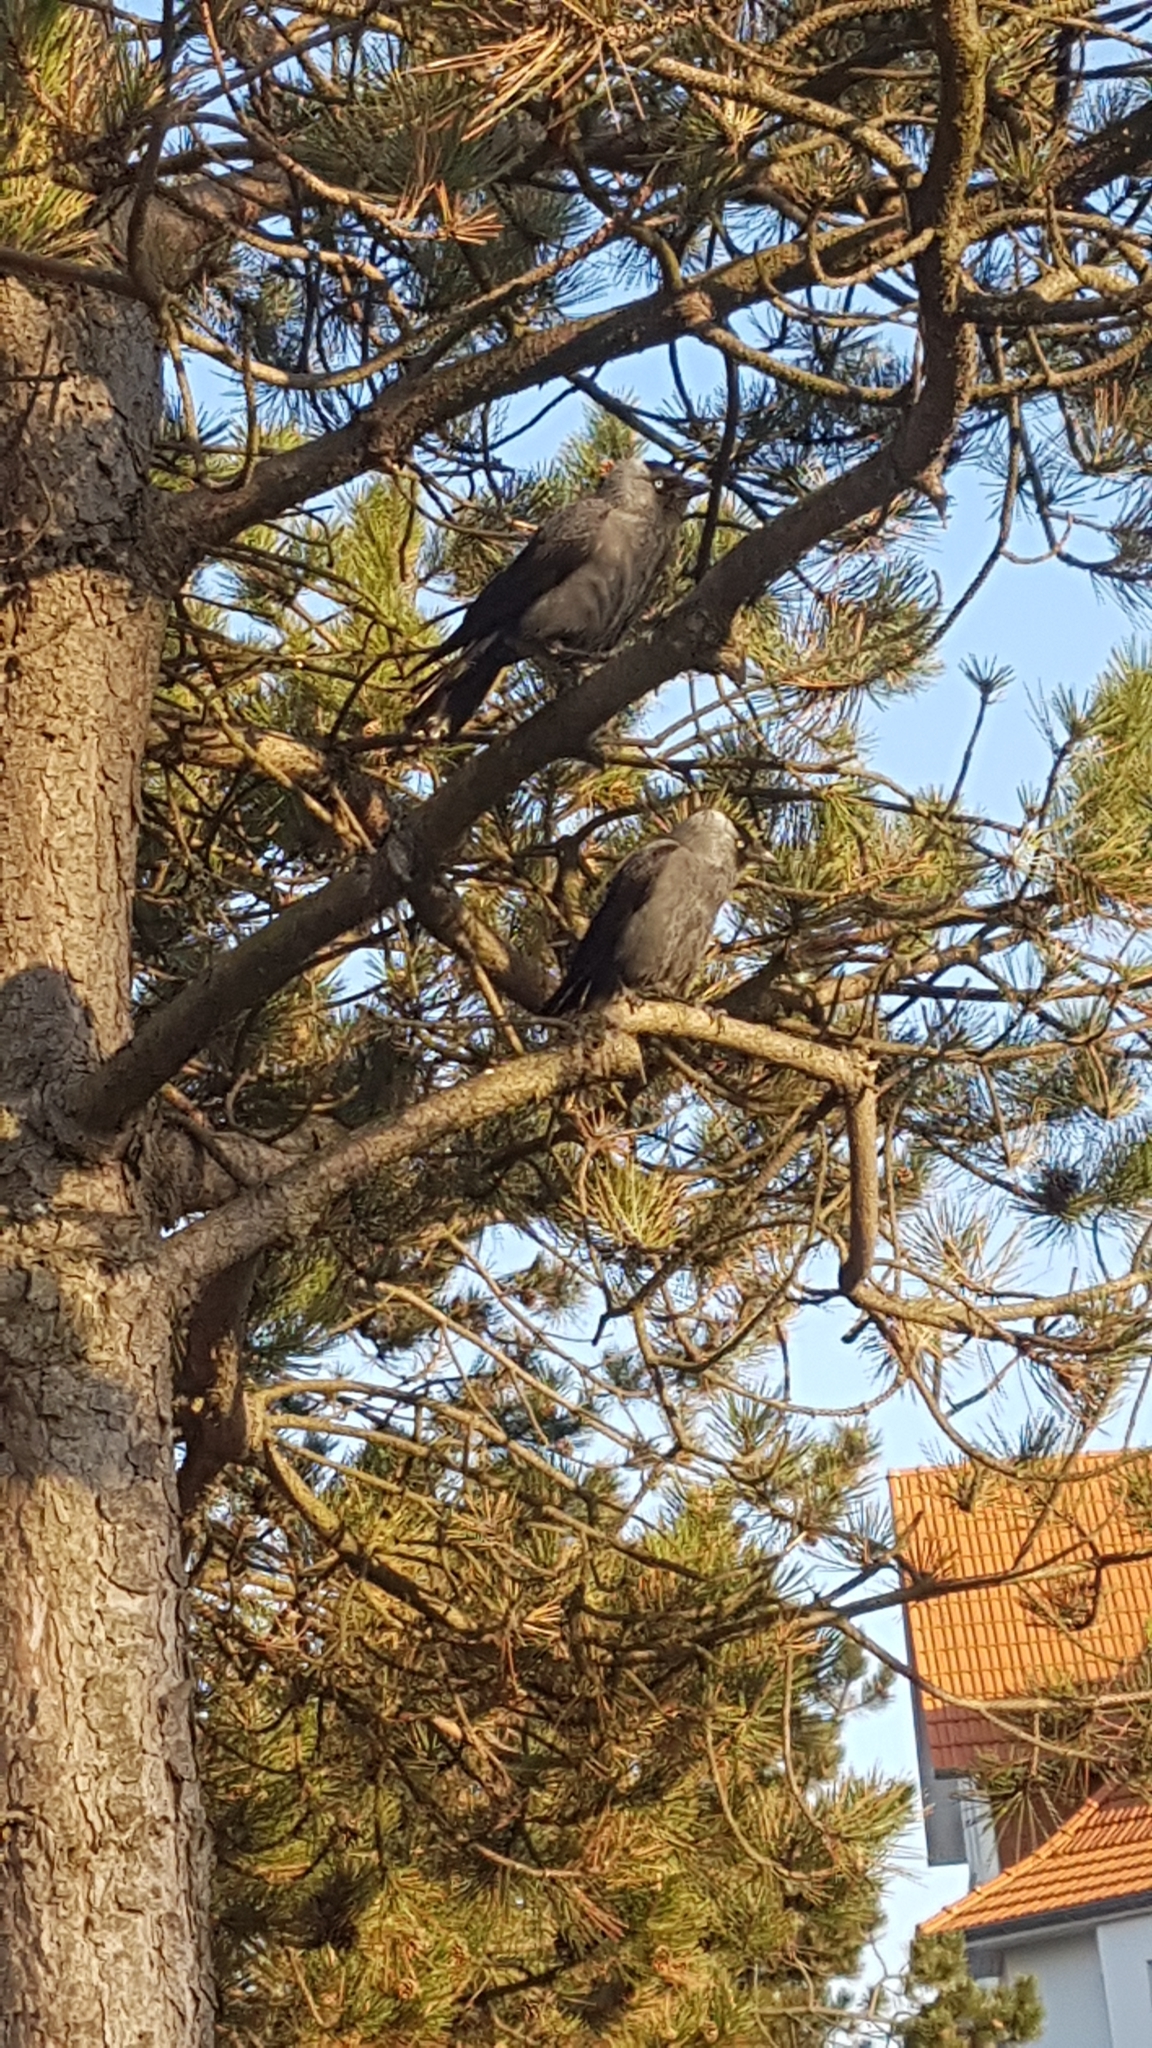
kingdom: Animalia
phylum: Chordata
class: Aves
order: Passeriformes
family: Corvidae
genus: Coloeus
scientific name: Coloeus monedula
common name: Western jackdaw
